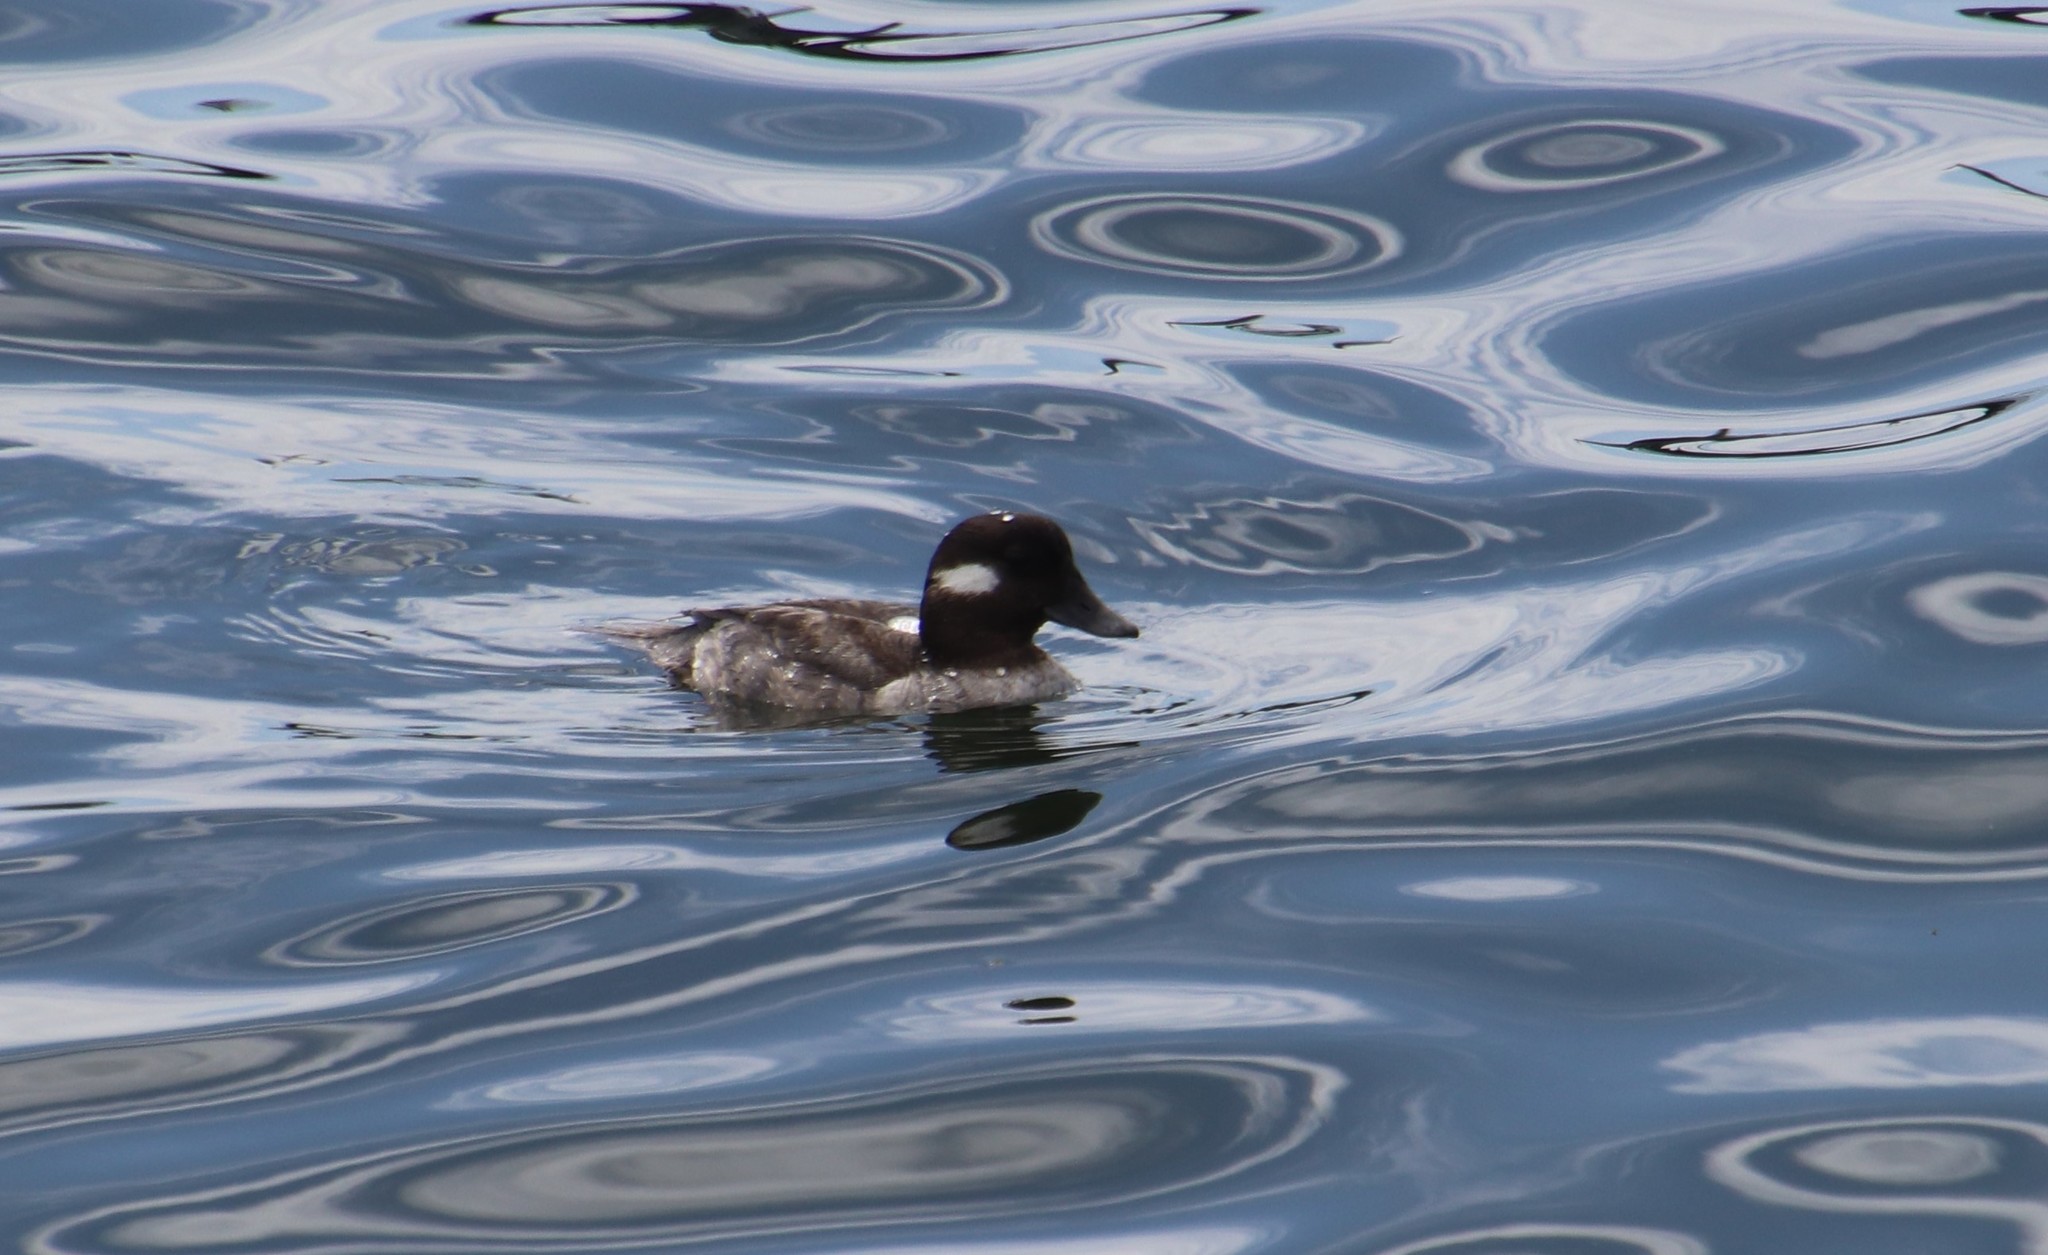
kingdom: Animalia
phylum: Chordata
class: Aves
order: Anseriformes
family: Anatidae
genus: Bucephala
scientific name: Bucephala albeola
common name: Bufflehead
